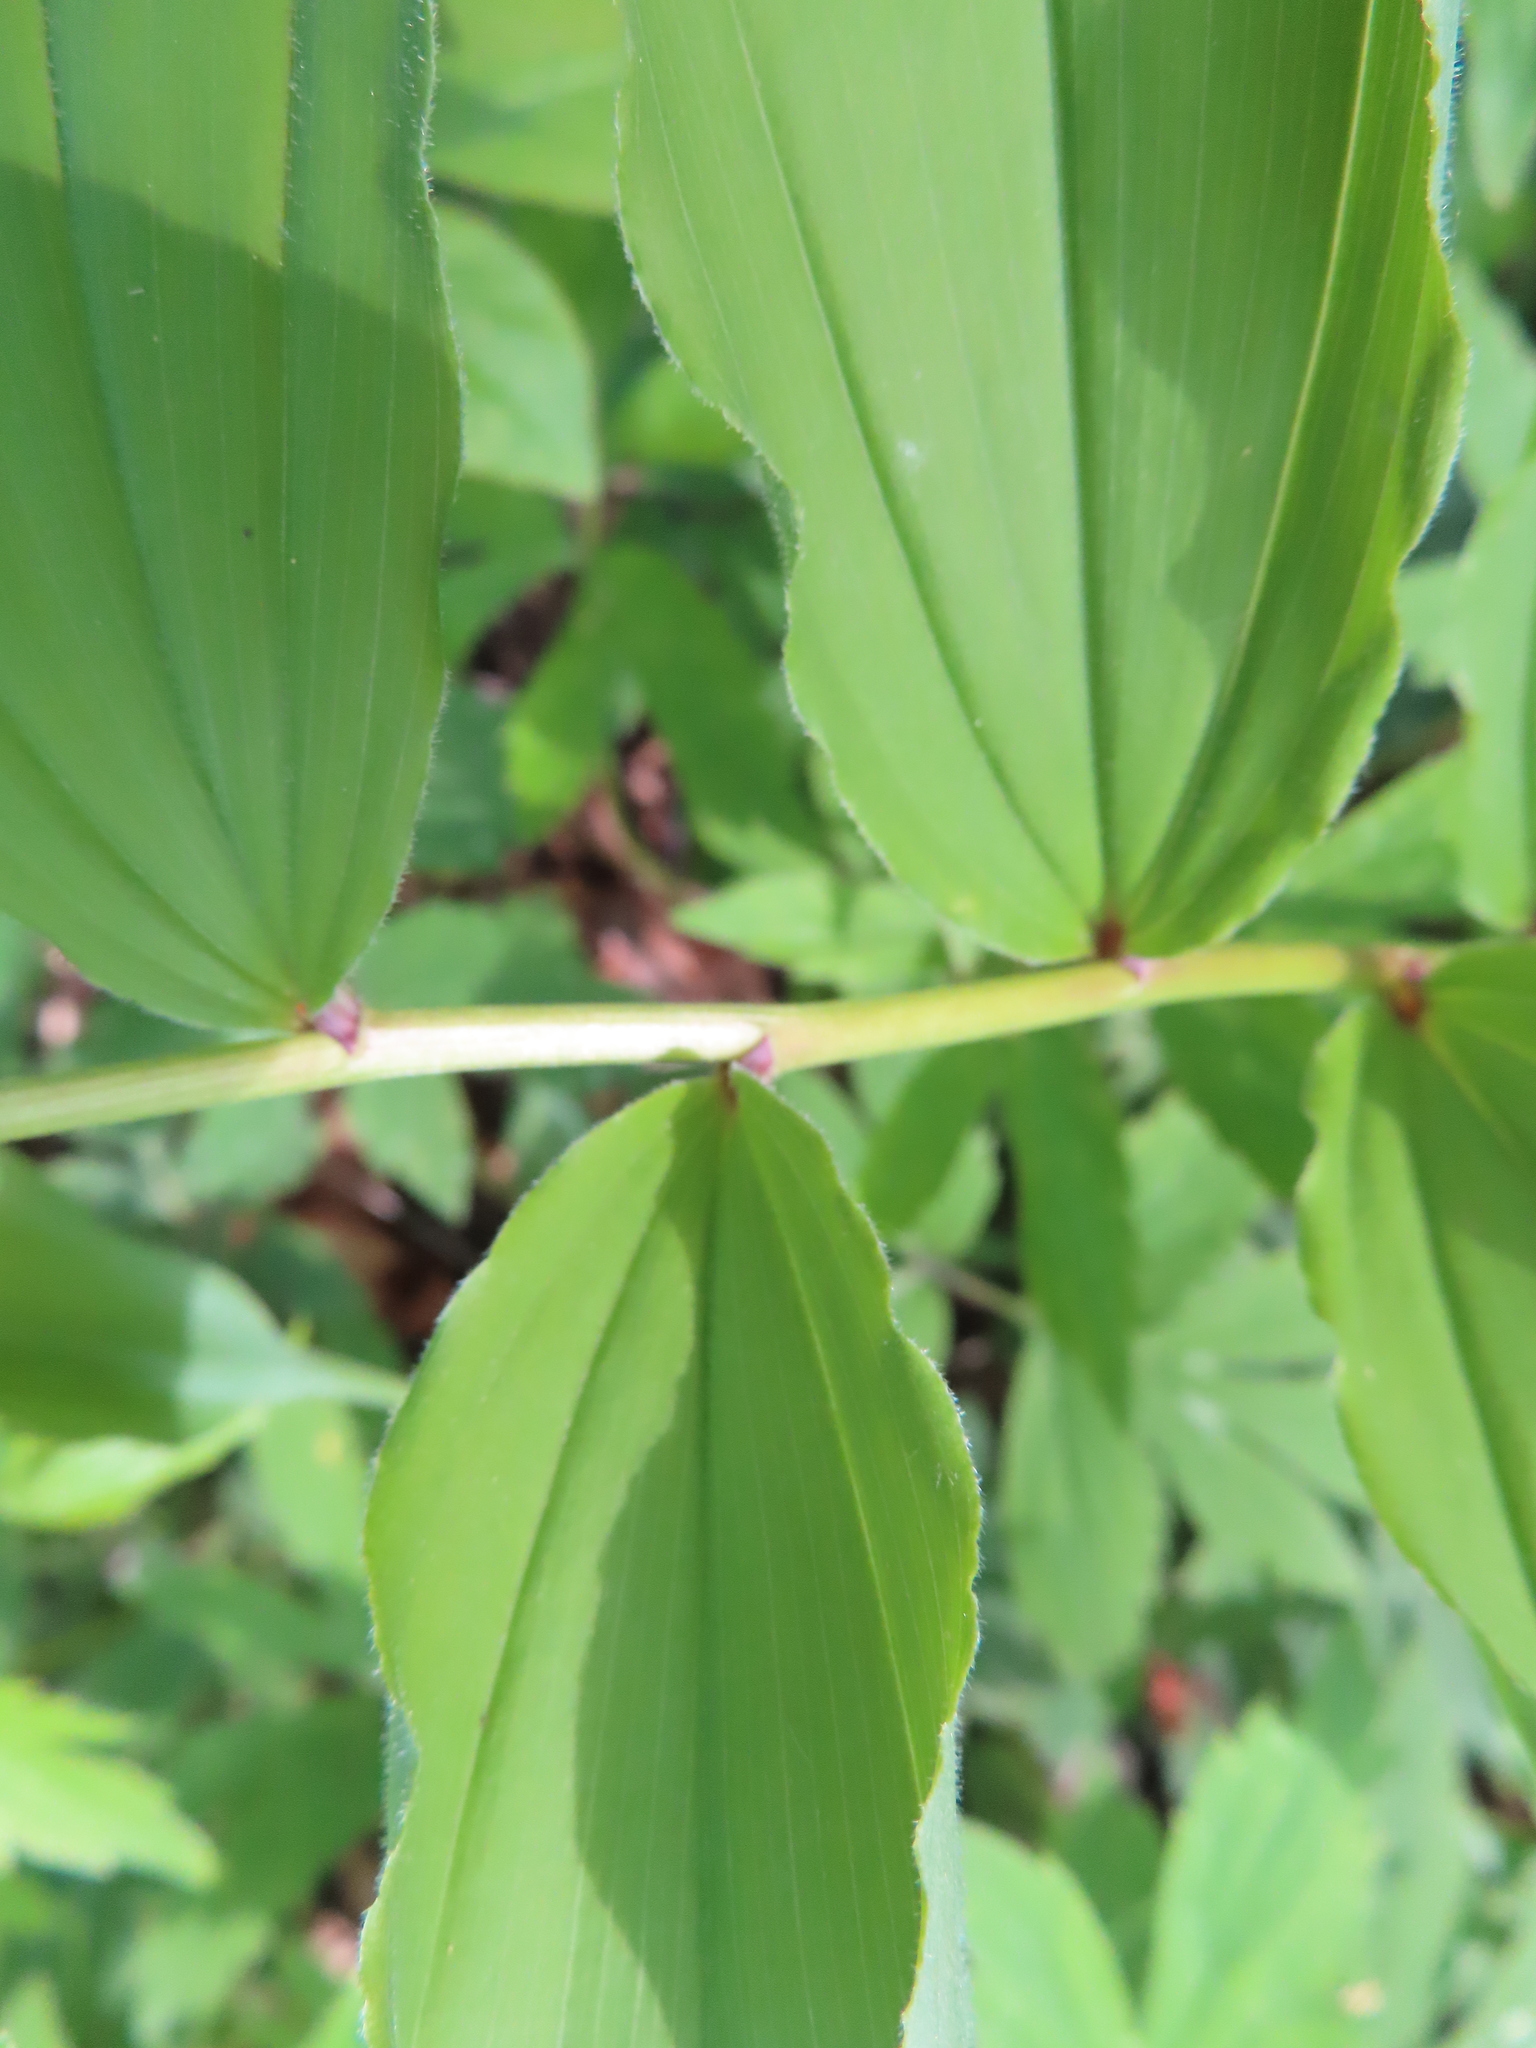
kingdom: Plantae
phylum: Tracheophyta
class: Liliopsida
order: Asparagales
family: Asparagaceae
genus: Maianthemum
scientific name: Maianthemum racemosum
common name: False spikenard
